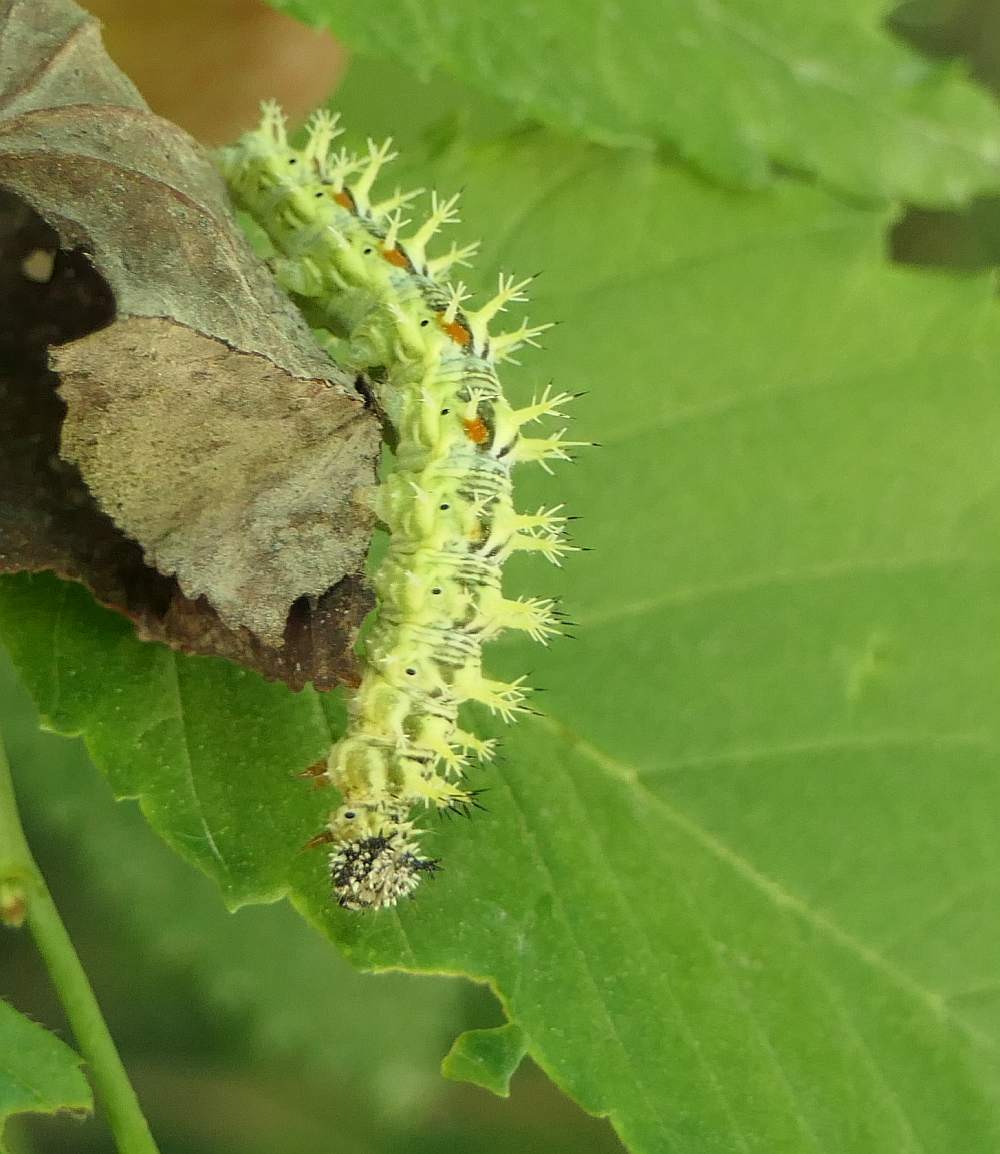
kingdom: Animalia
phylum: Arthropoda
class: Insecta
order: Lepidoptera
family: Nymphalidae
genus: Polygonia
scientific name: Polygonia comma
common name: Eastern comma
